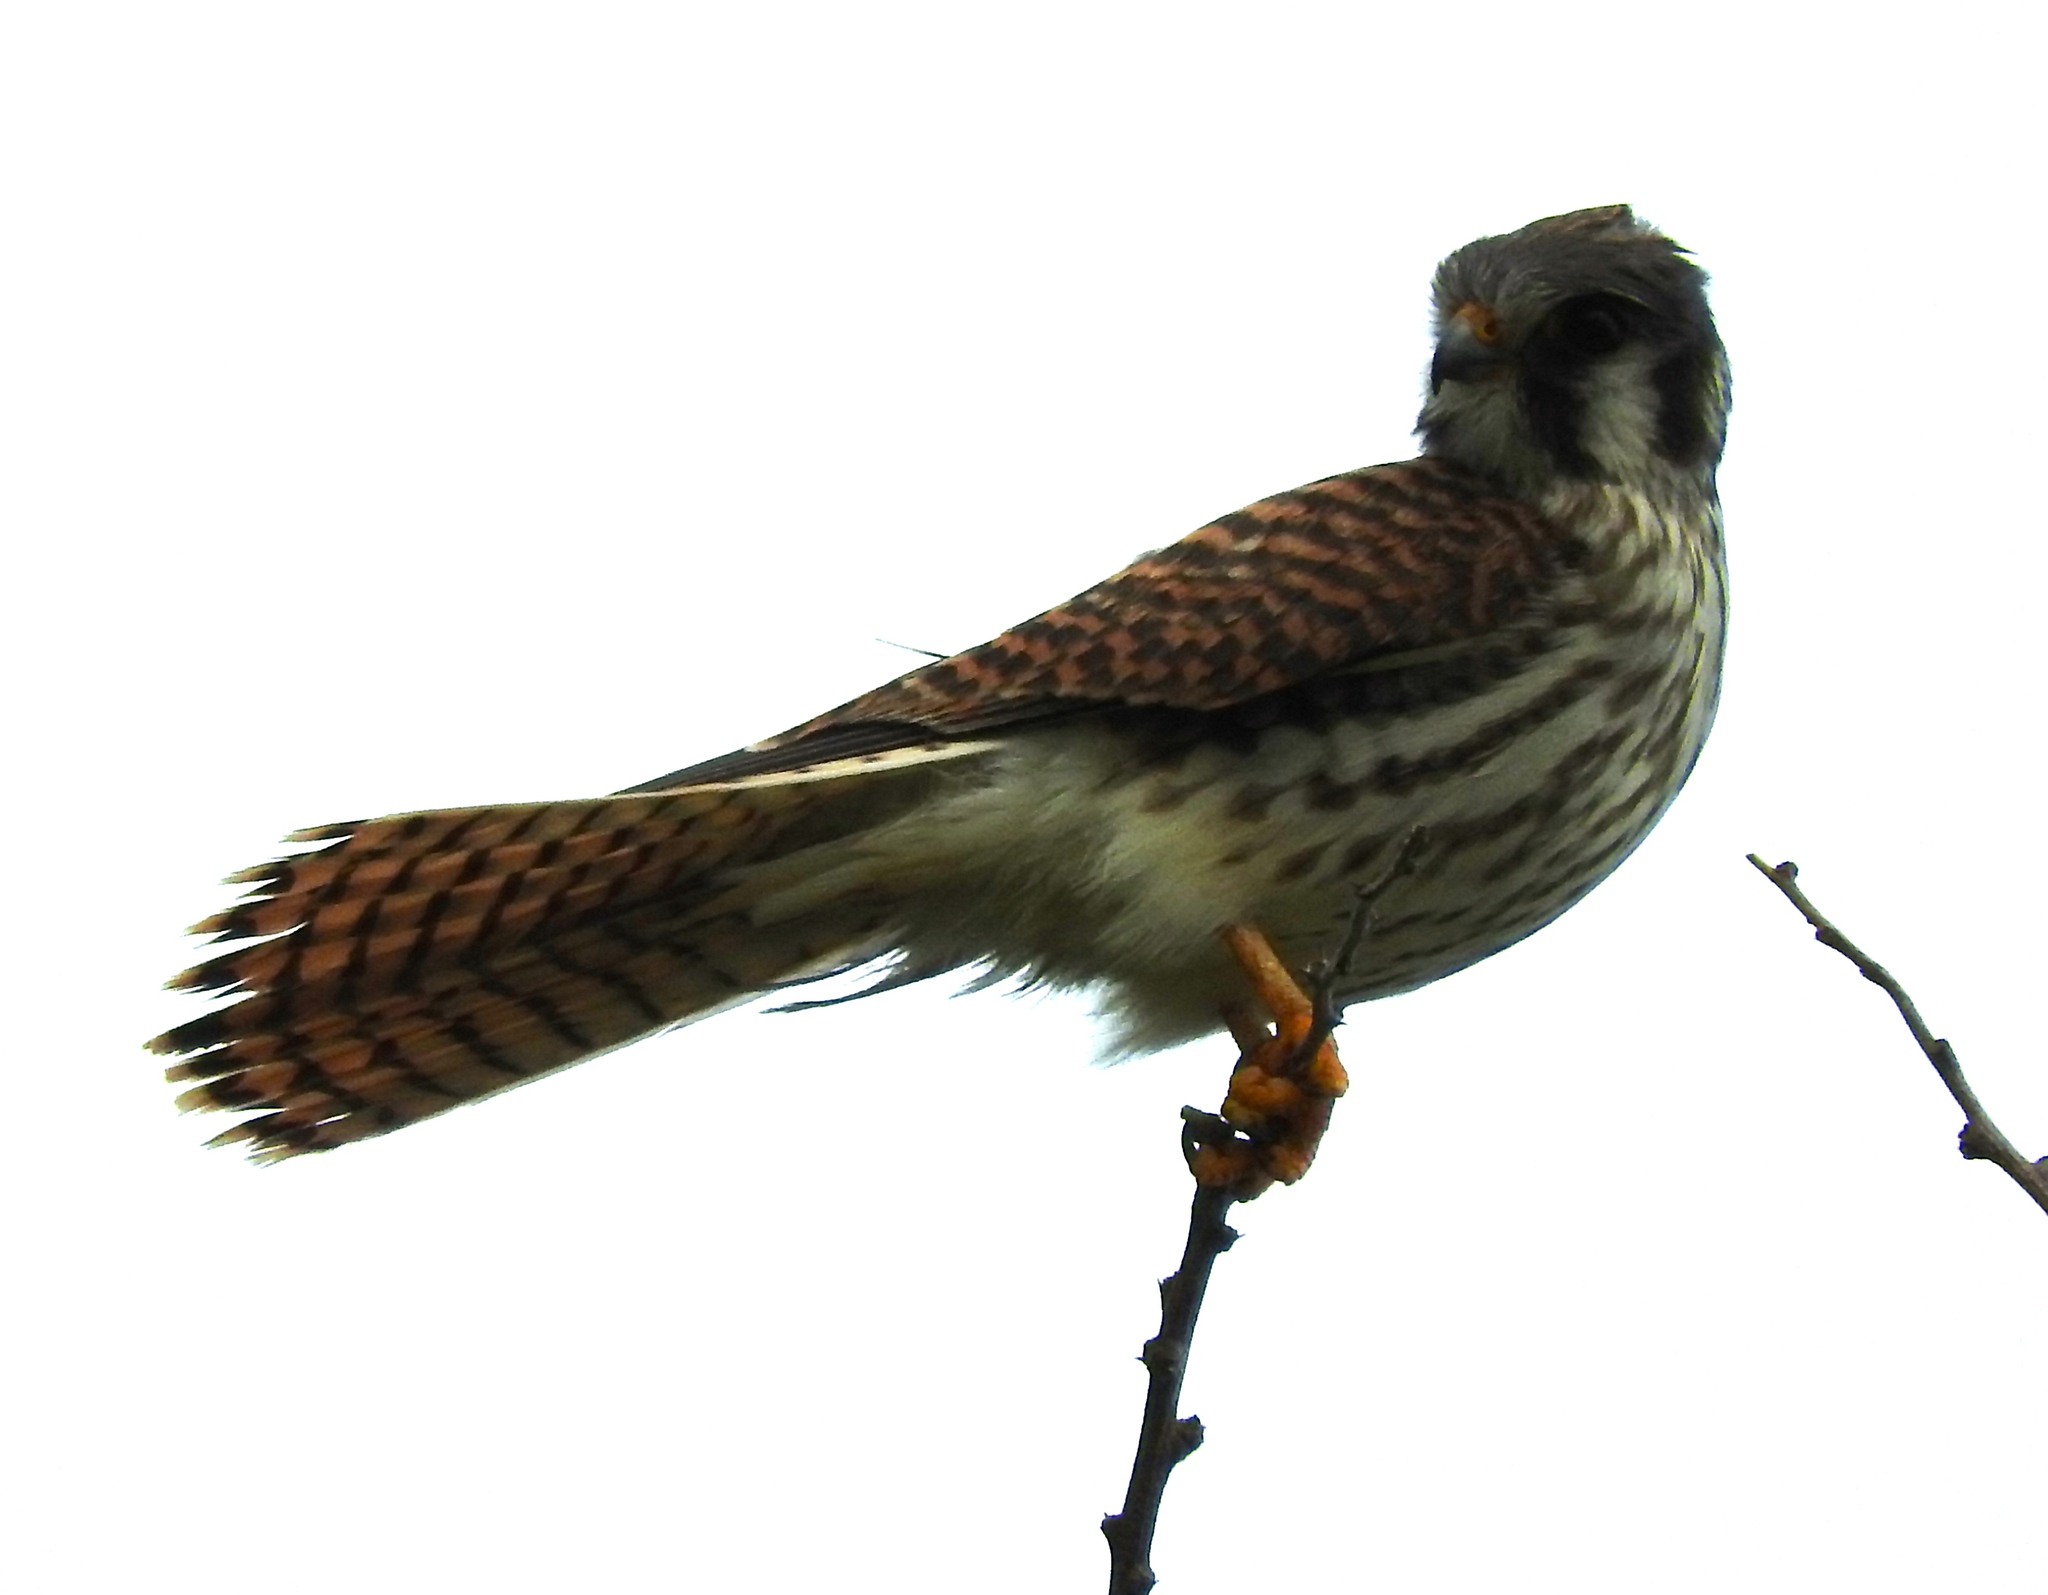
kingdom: Animalia
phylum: Chordata
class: Aves
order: Falconiformes
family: Falconidae
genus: Falco
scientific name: Falco sparverius
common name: American kestrel
